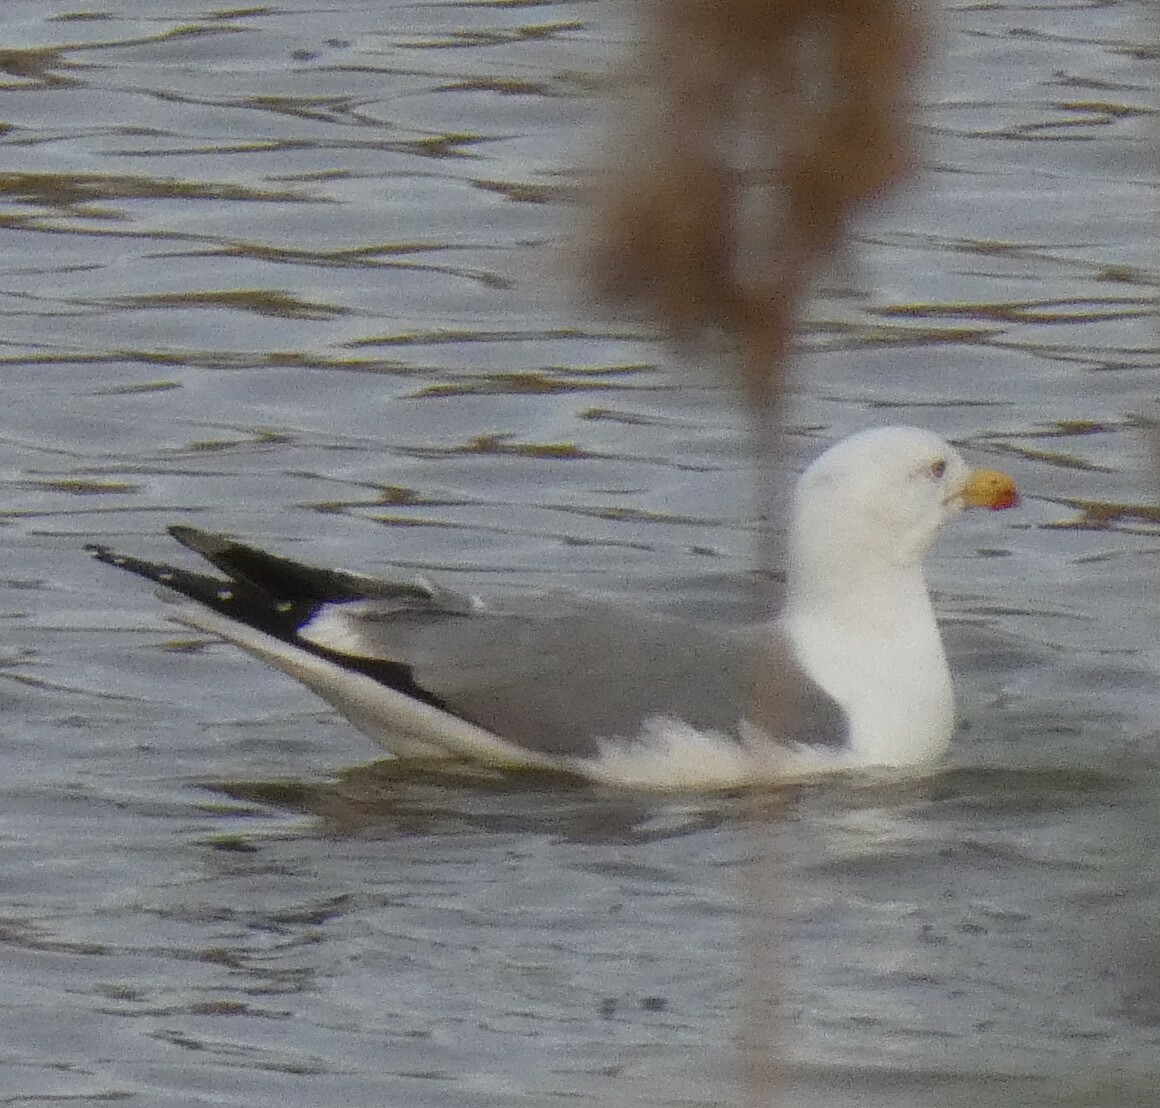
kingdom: Animalia
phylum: Chordata
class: Aves
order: Charadriiformes
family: Laridae
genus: Larus
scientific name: Larus michahellis
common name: Yellow-legged gull
